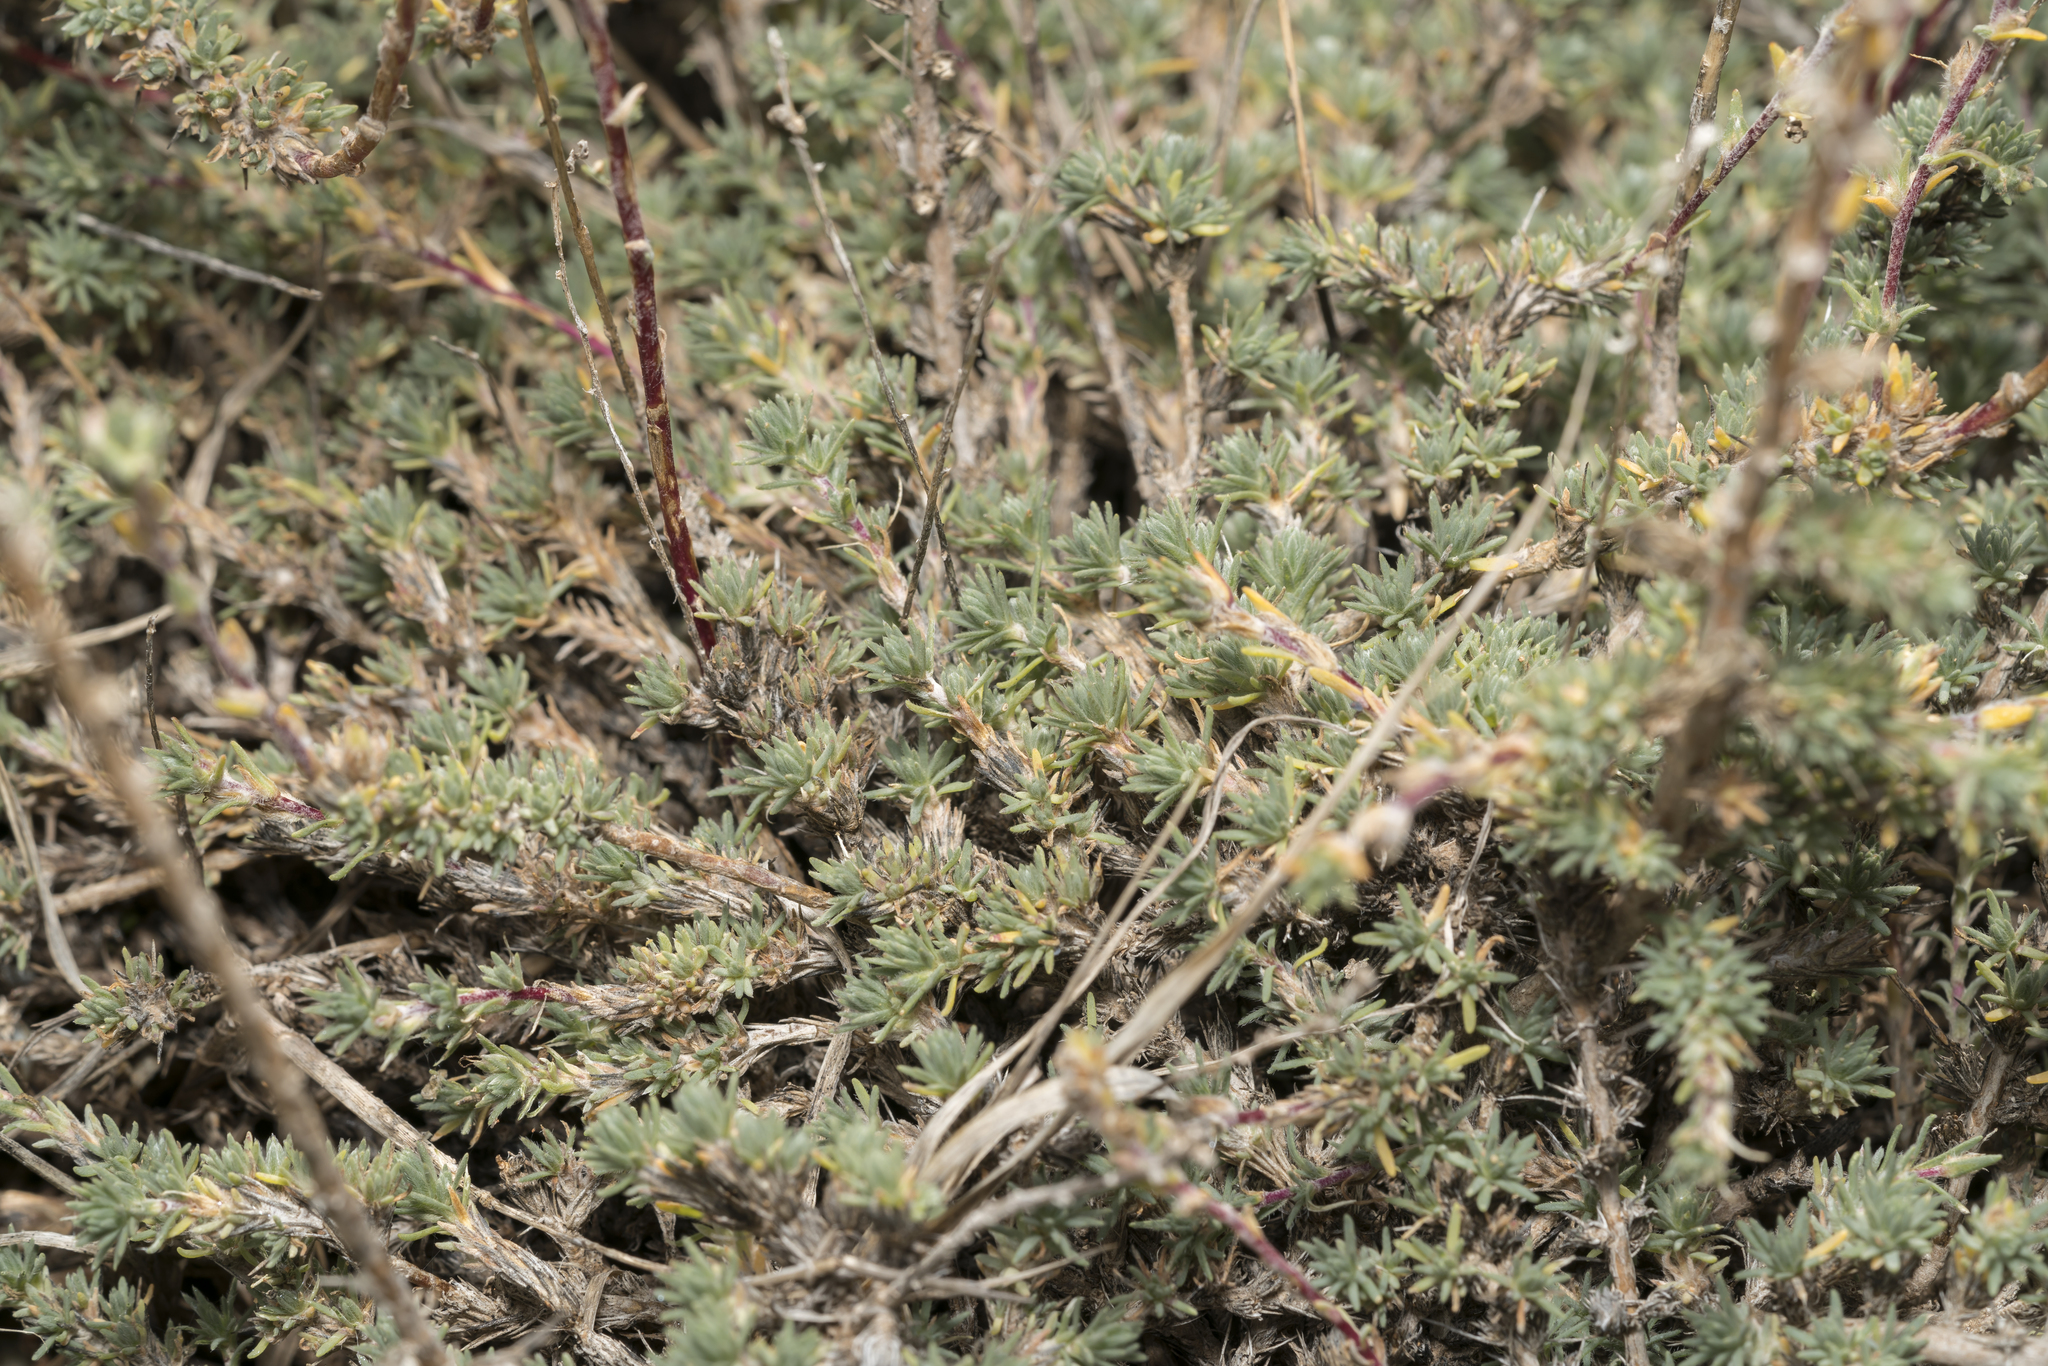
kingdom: Plantae
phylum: Tracheophyta
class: Magnoliopsida
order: Caryophyllales
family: Amaranthaceae
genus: Camphorosma
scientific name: Camphorosma monspeliaca
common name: Camphorfume
